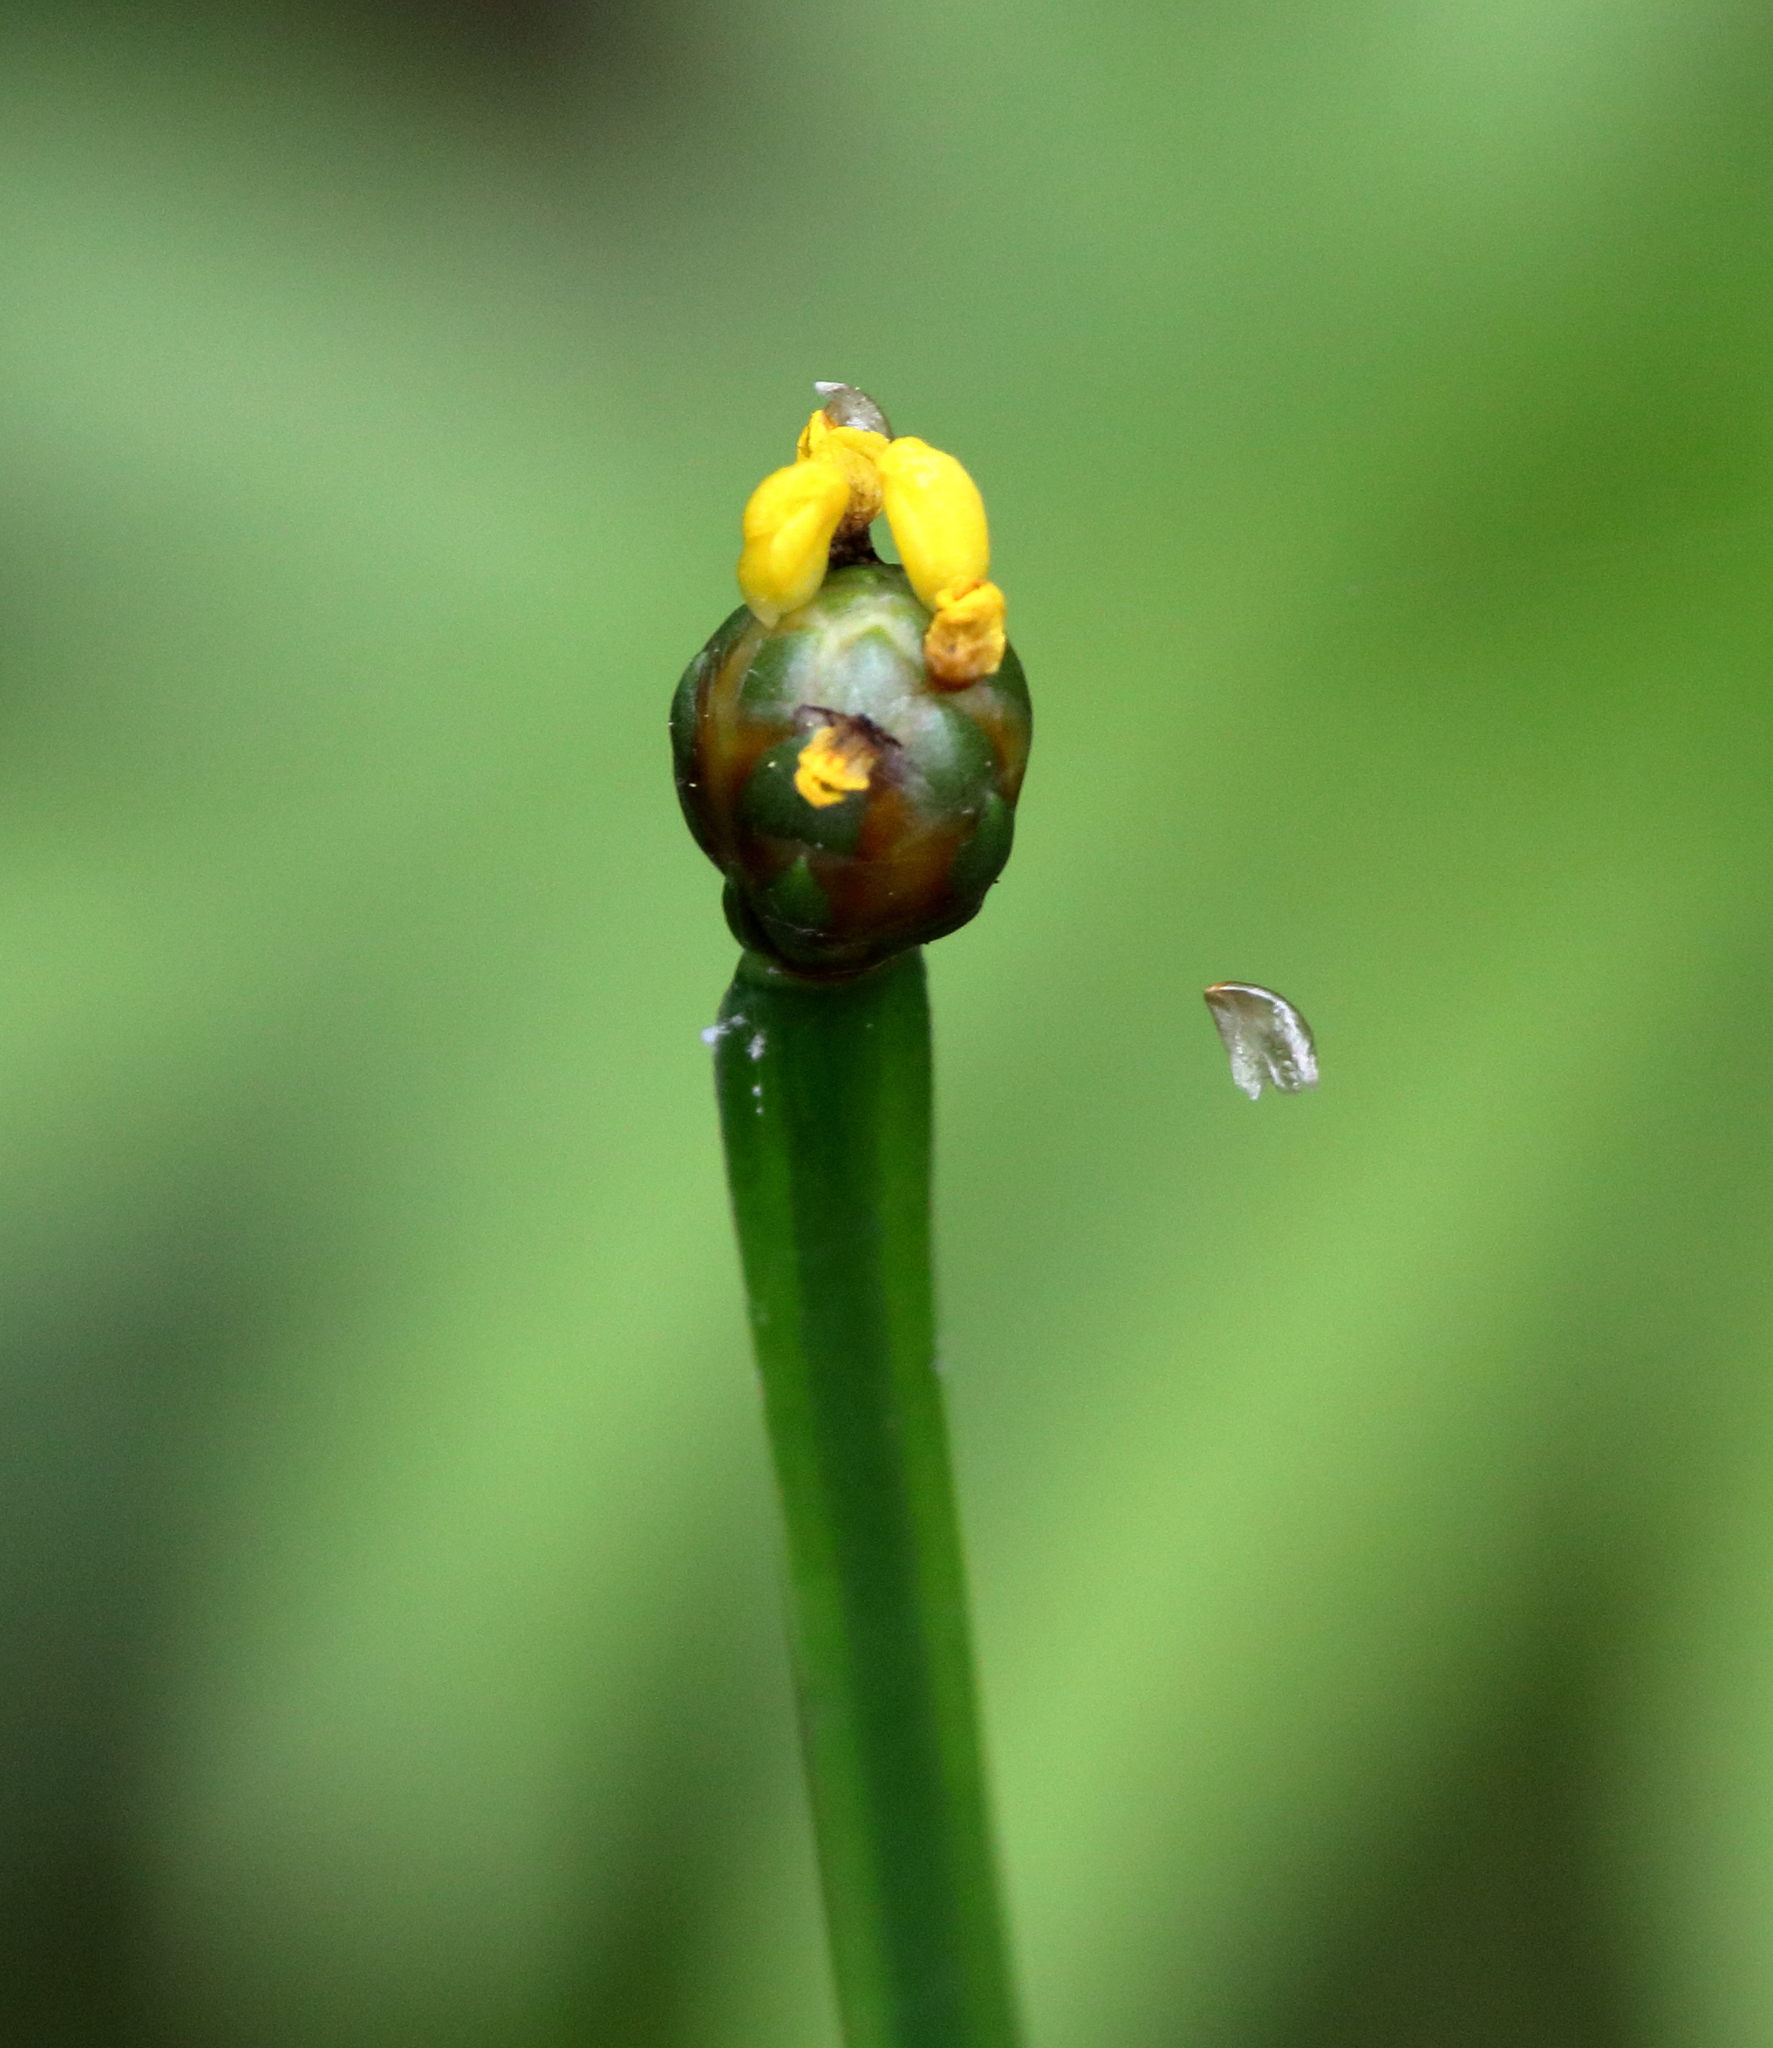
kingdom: Plantae
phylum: Tracheophyta
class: Liliopsida
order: Poales
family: Xyridaceae
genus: Xyris
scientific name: Xyris difformis
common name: Bog yellow-eyed-grass
